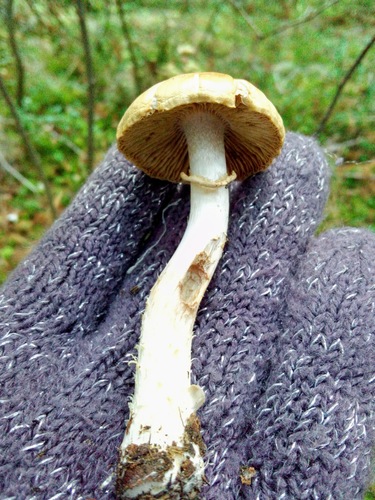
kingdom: Fungi
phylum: Basidiomycota
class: Agaricomycetes
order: Agaricales
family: Cortinariaceae
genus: Cortinarius
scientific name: Cortinarius caperatus
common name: The gypsy
